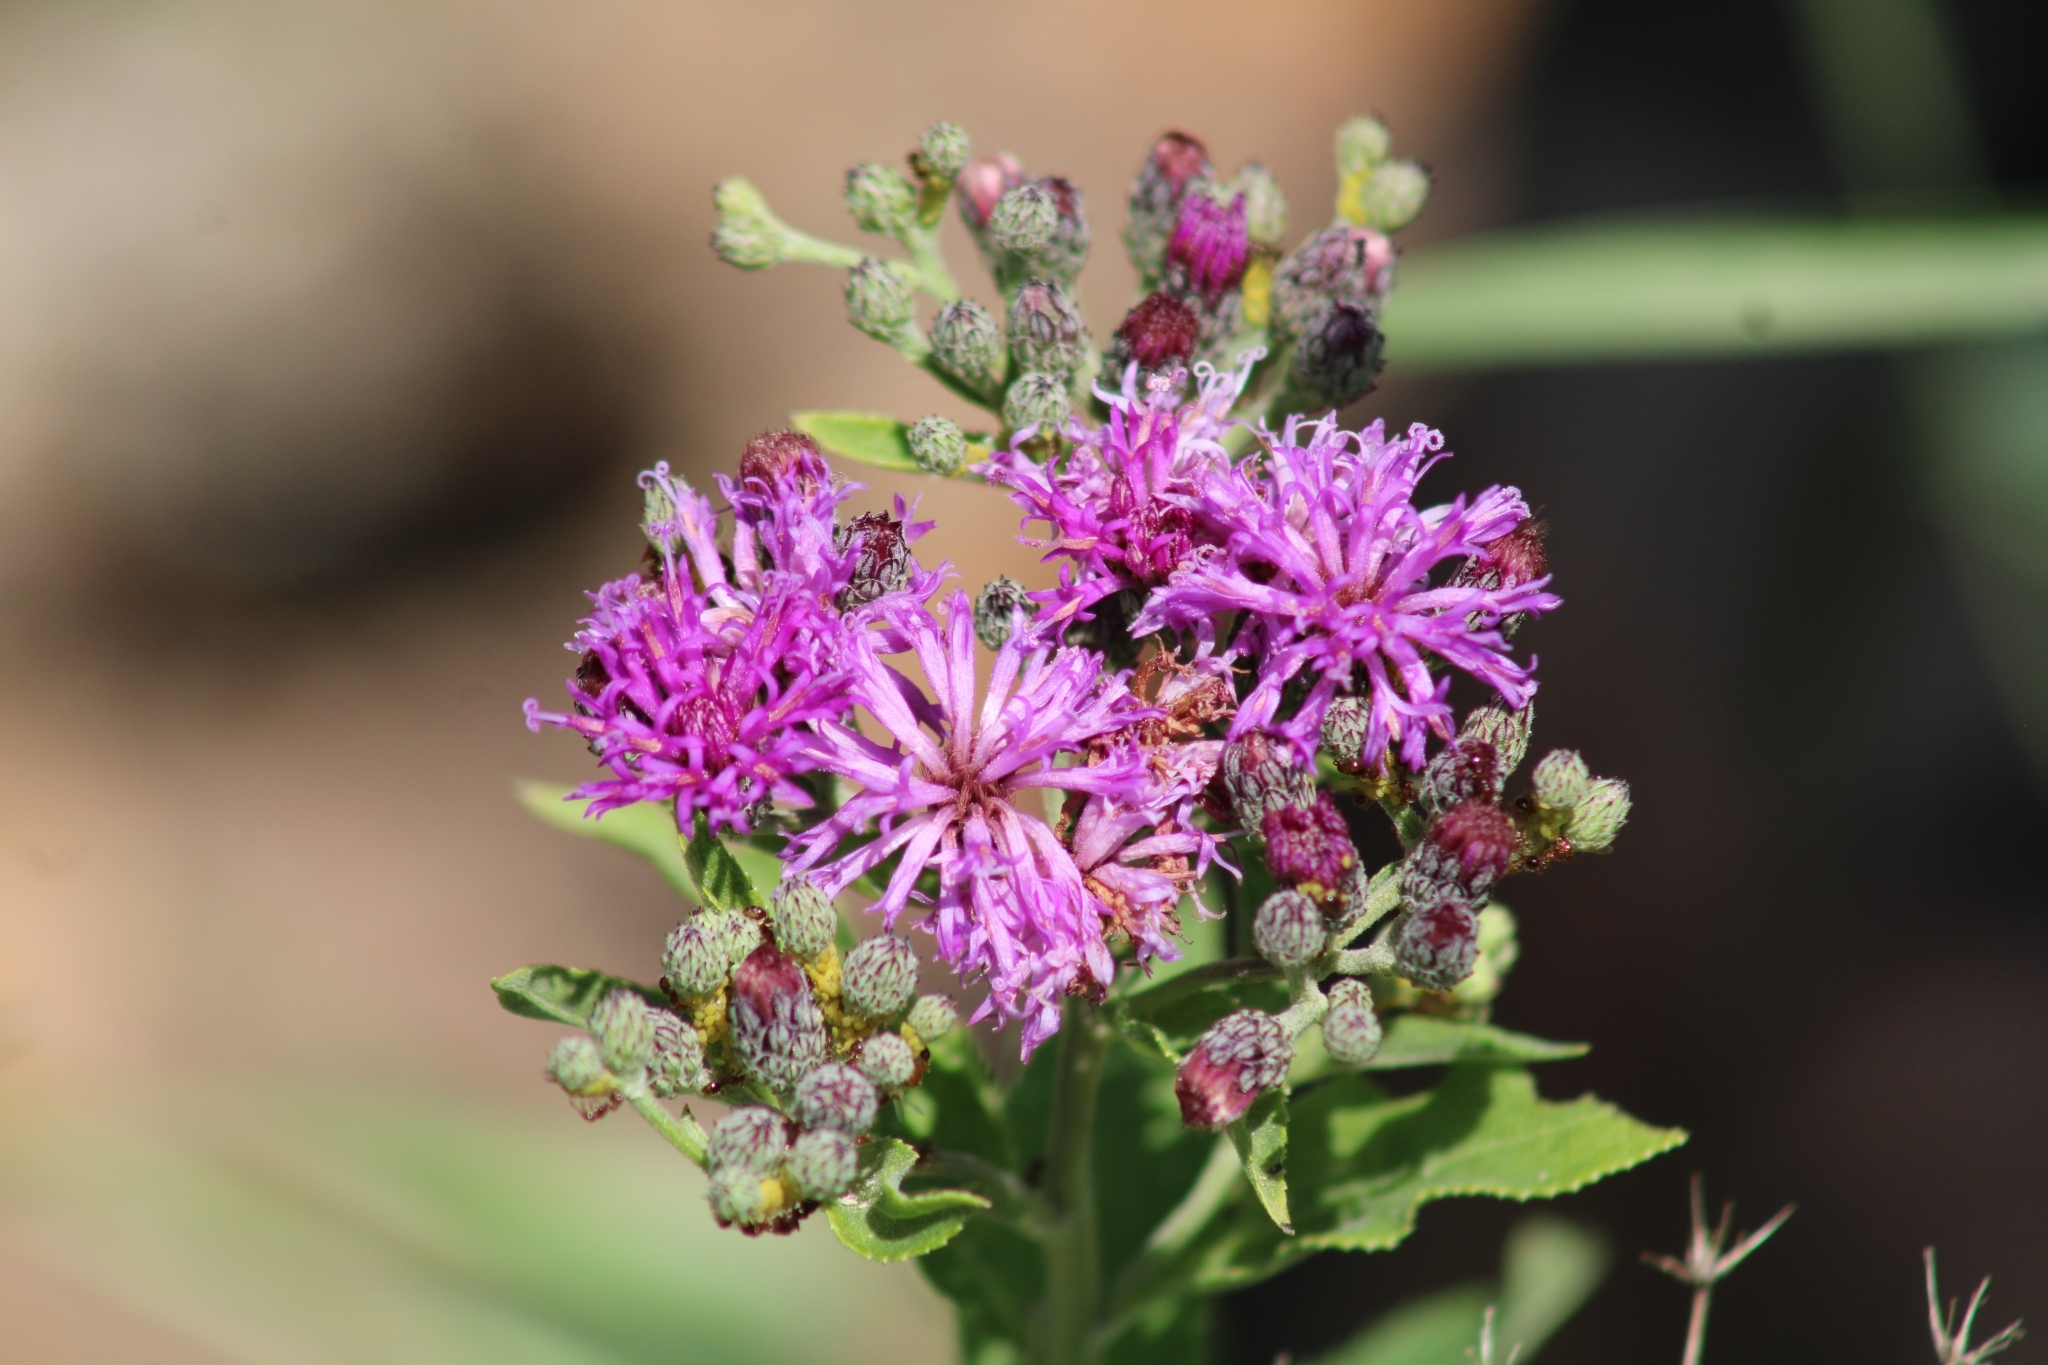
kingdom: Plantae
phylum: Tracheophyta
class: Magnoliopsida
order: Asterales
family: Asteraceae
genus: Vernonia
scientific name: Vernonia baldwinii
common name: Western ironweed
